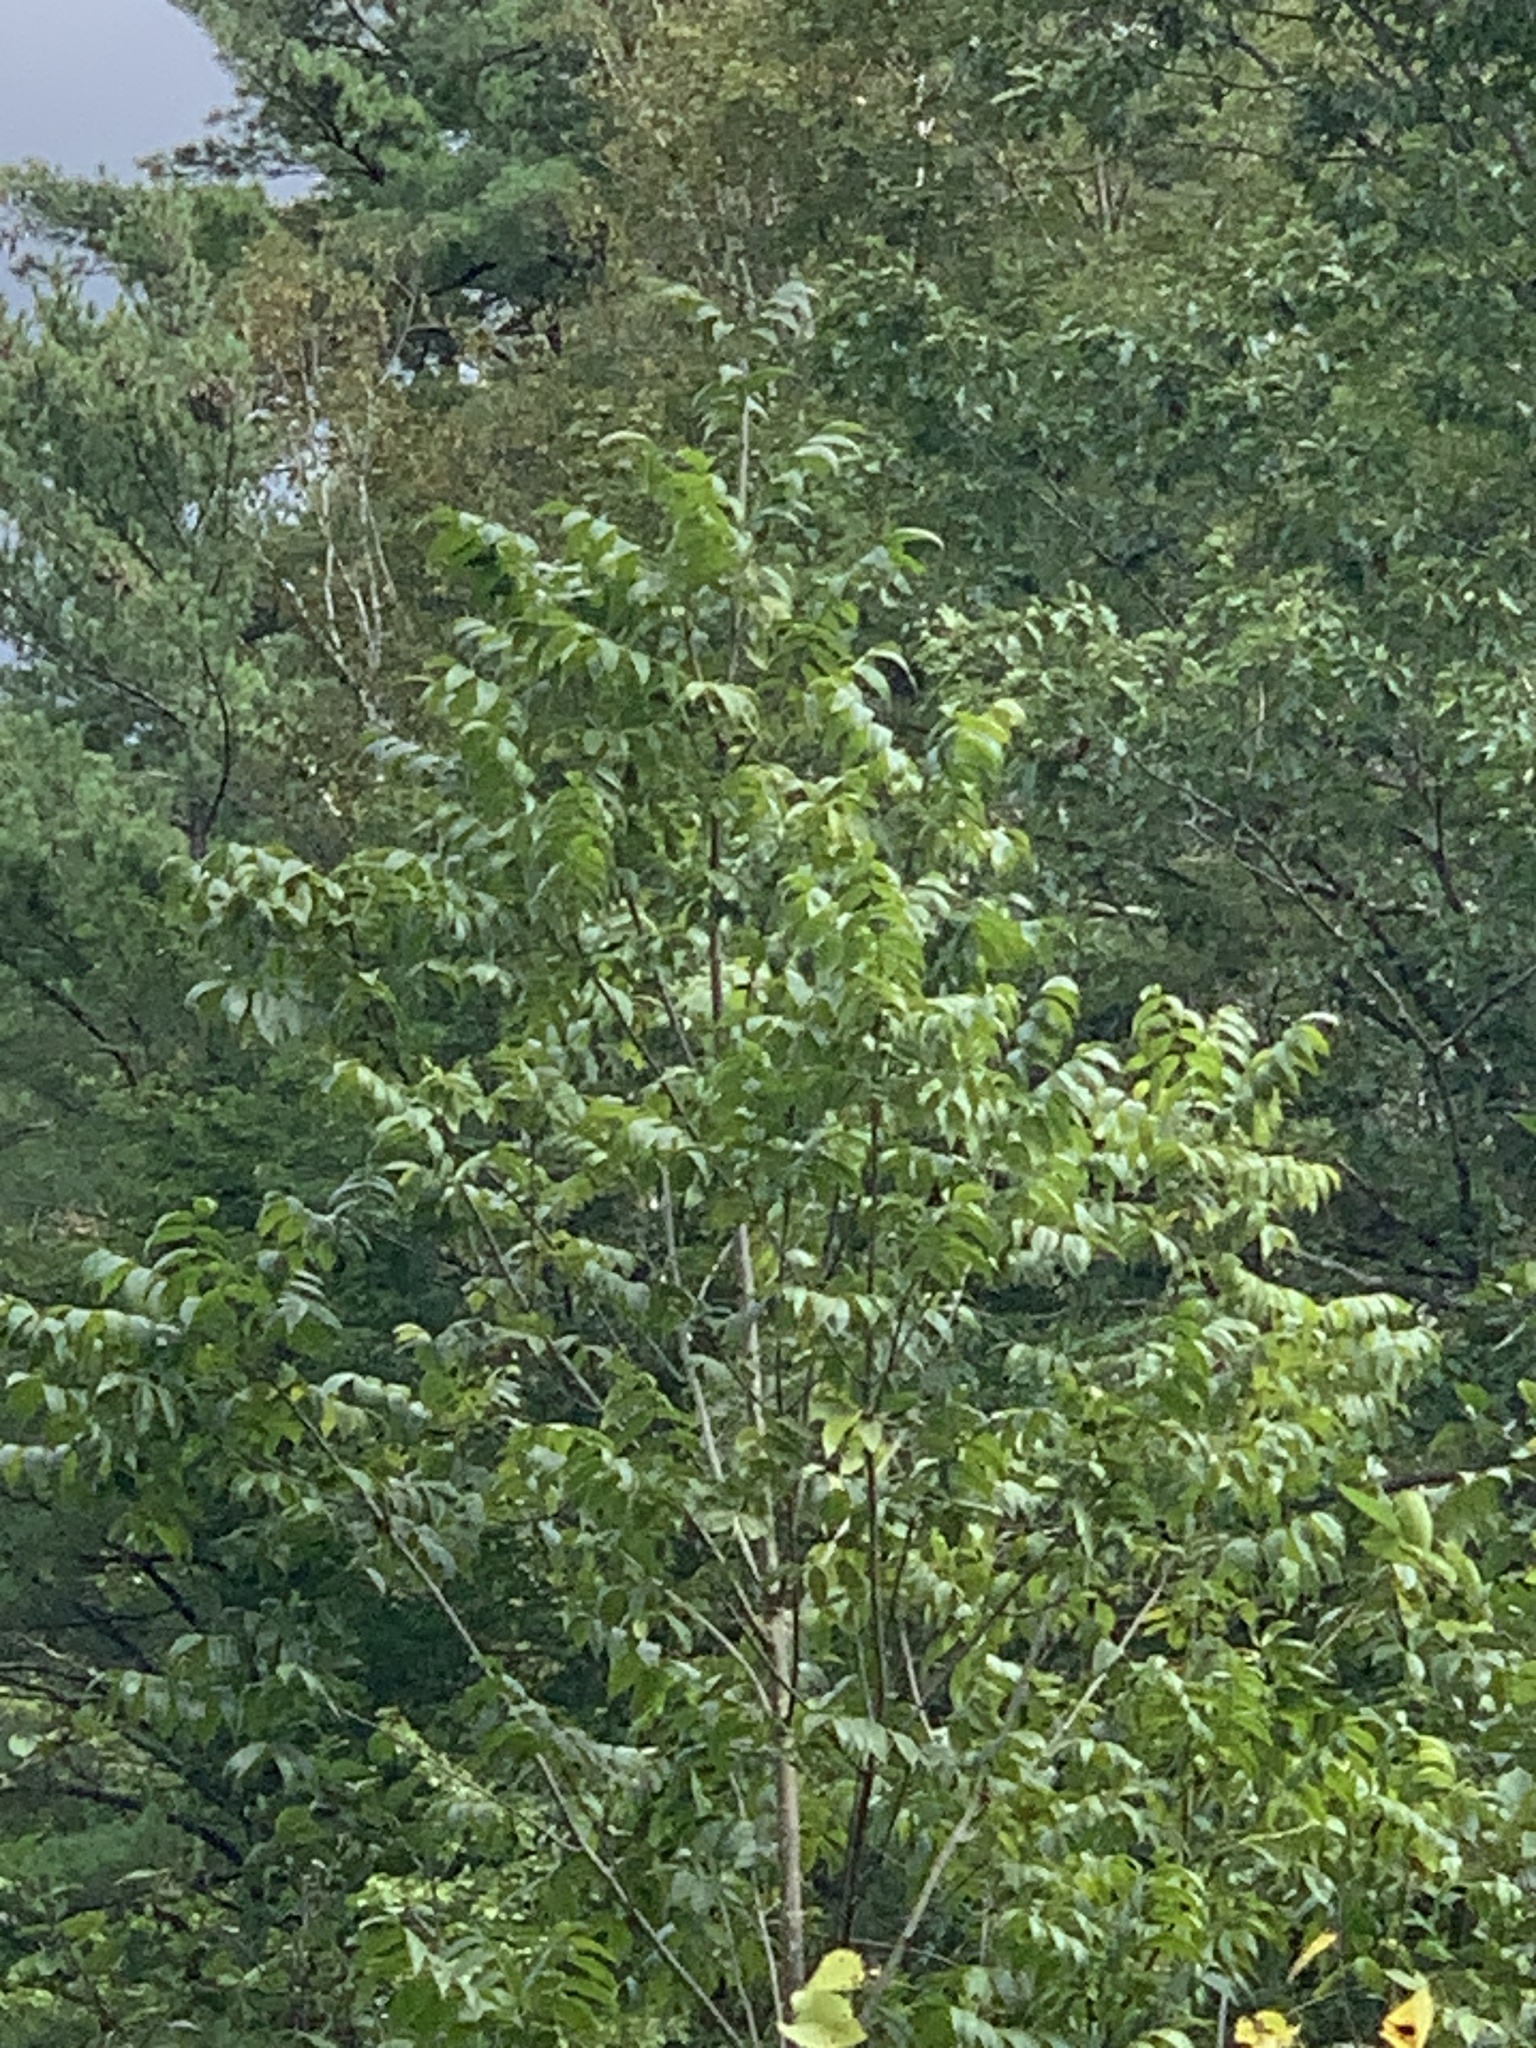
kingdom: Plantae
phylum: Tracheophyta
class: Magnoliopsida
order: Lamiales
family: Oleaceae
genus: Fraxinus
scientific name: Fraxinus nigra
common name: Black ash
